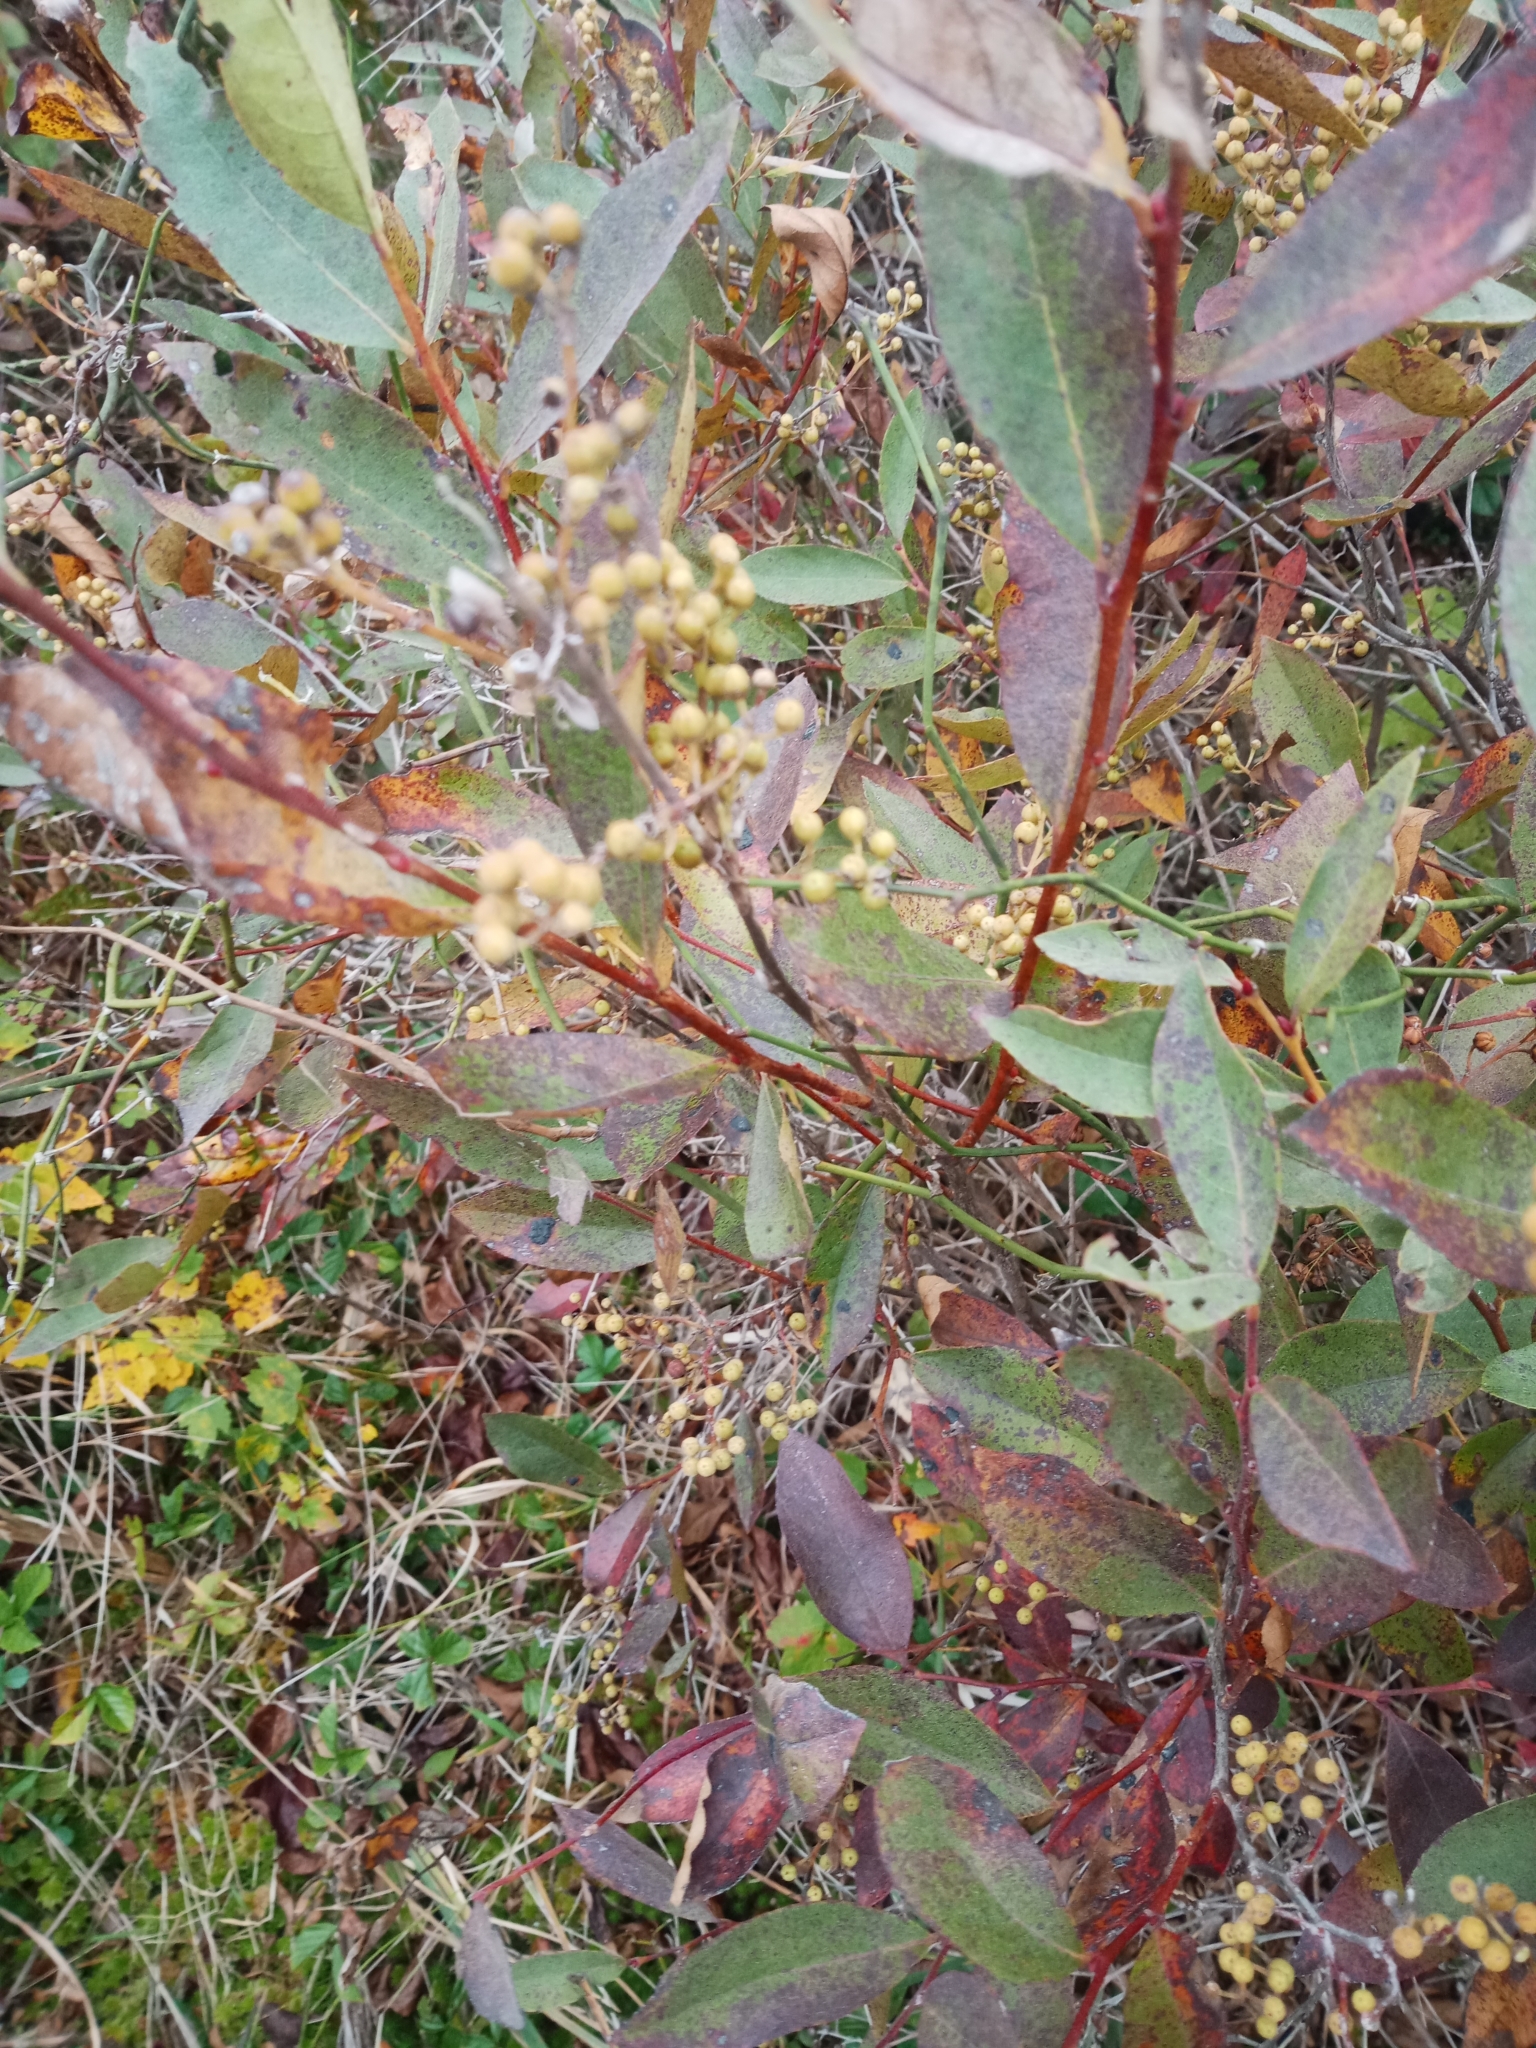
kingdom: Plantae
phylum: Tracheophyta
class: Magnoliopsida
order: Ericales
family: Ericaceae
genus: Lyonia
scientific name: Lyonia ligustrina
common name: Maleberry
